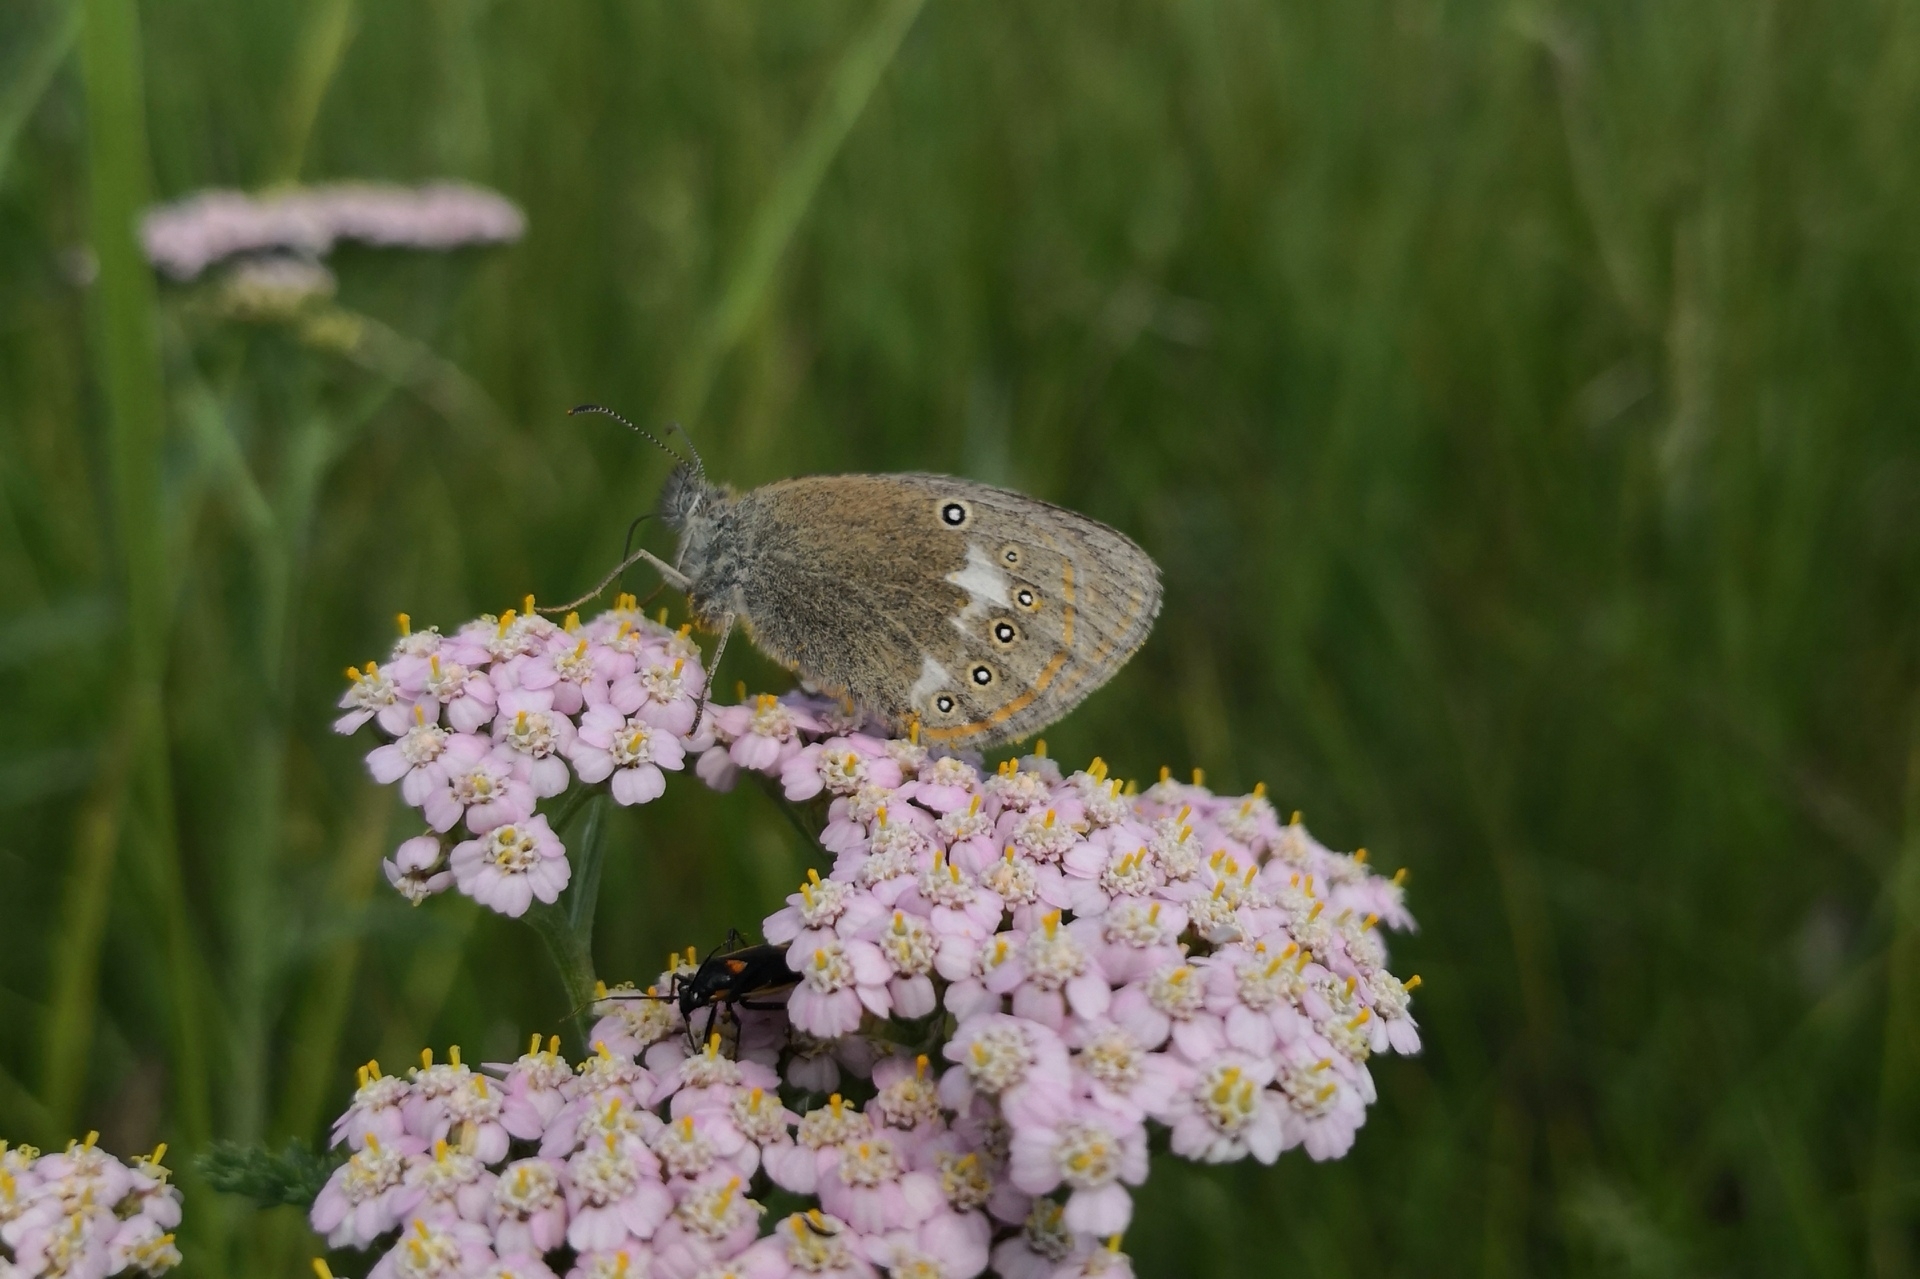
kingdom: Animalia
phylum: Arthropoda
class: Insecta
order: Lepidoptera
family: Nymphalidae
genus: Coenonympha
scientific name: Coenonympha iphis
